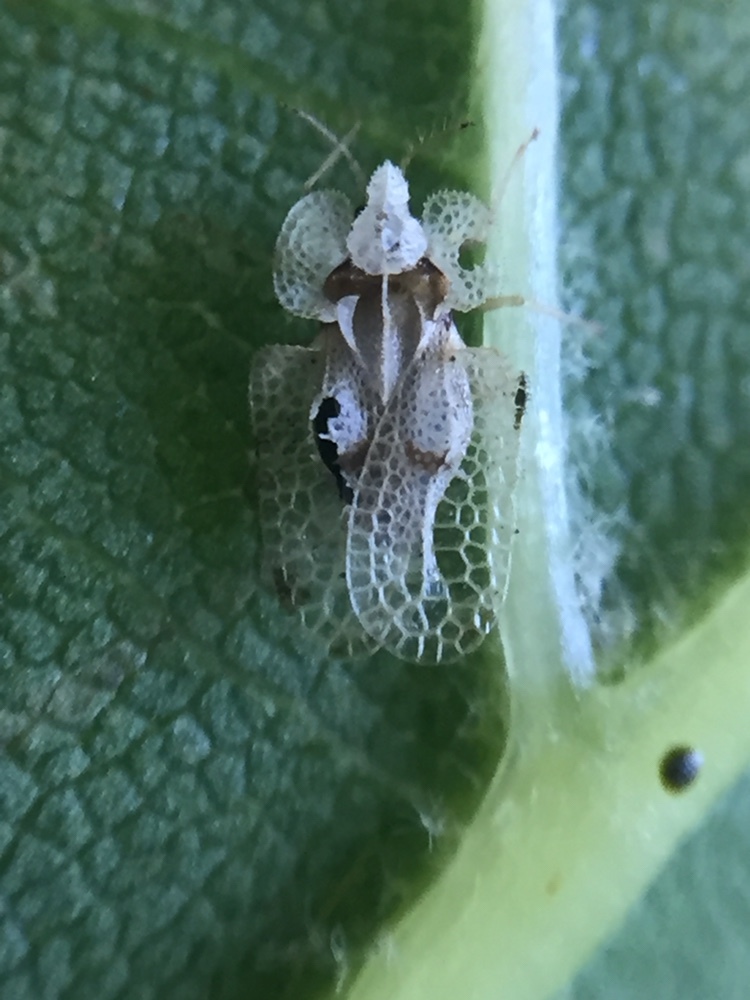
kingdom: Animalia
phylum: Arthropoda
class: Insecta
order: Hemiptera
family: Tingidae
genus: Corythucha
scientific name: Corythucha ciliata
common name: Sycamore lace bug
